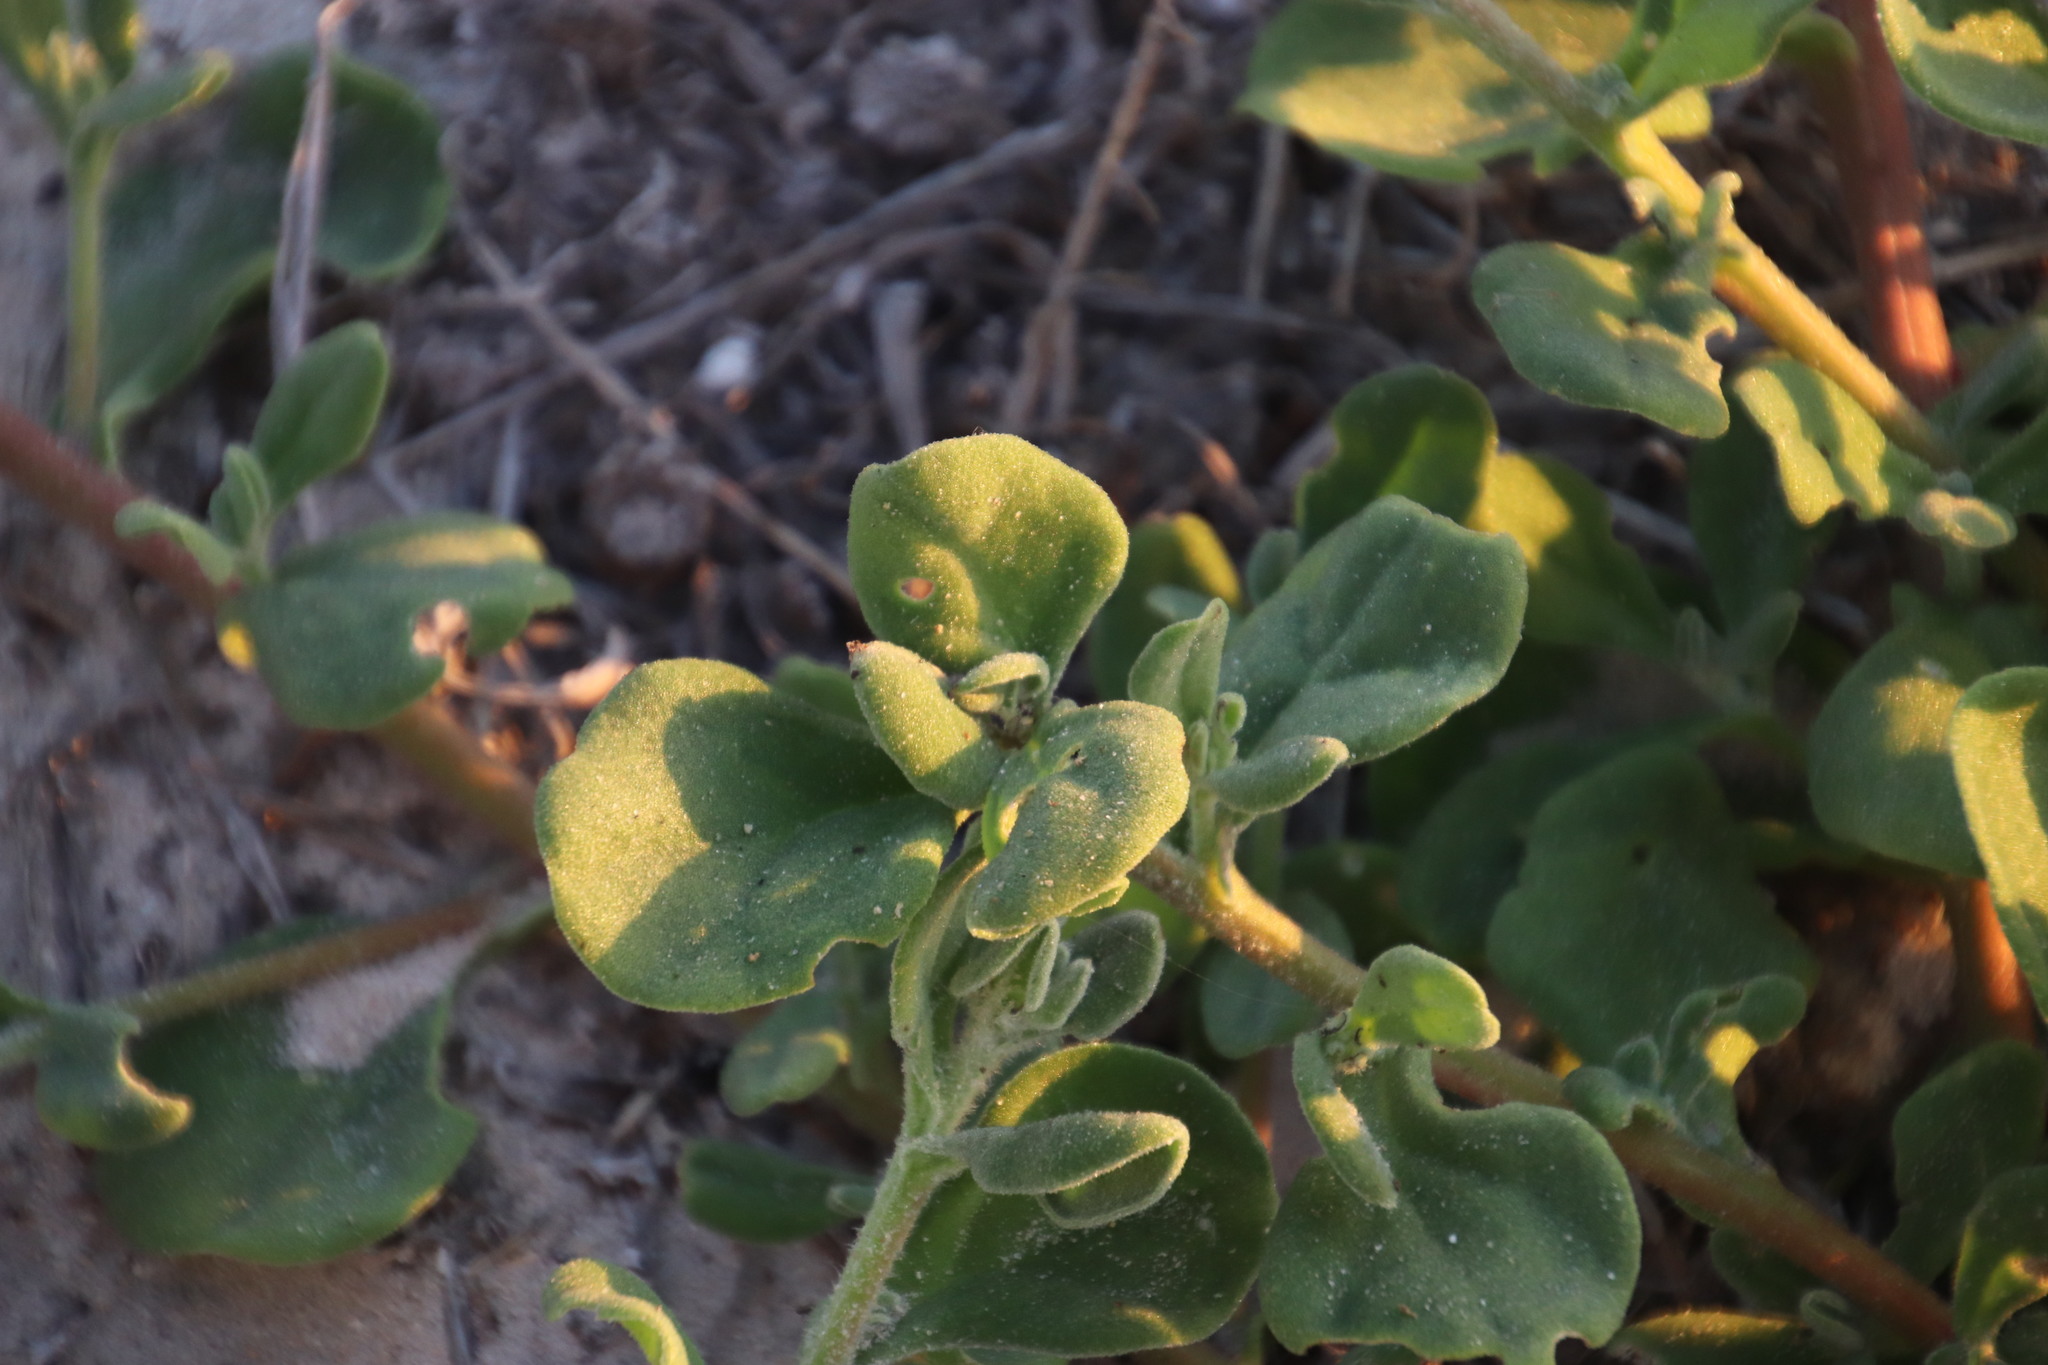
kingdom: Plantae
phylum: Tracheophyta
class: Magnoliopsida
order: Caryophyllales
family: Aizoaceae
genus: Tetragonia
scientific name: Tetragonia decumbens
